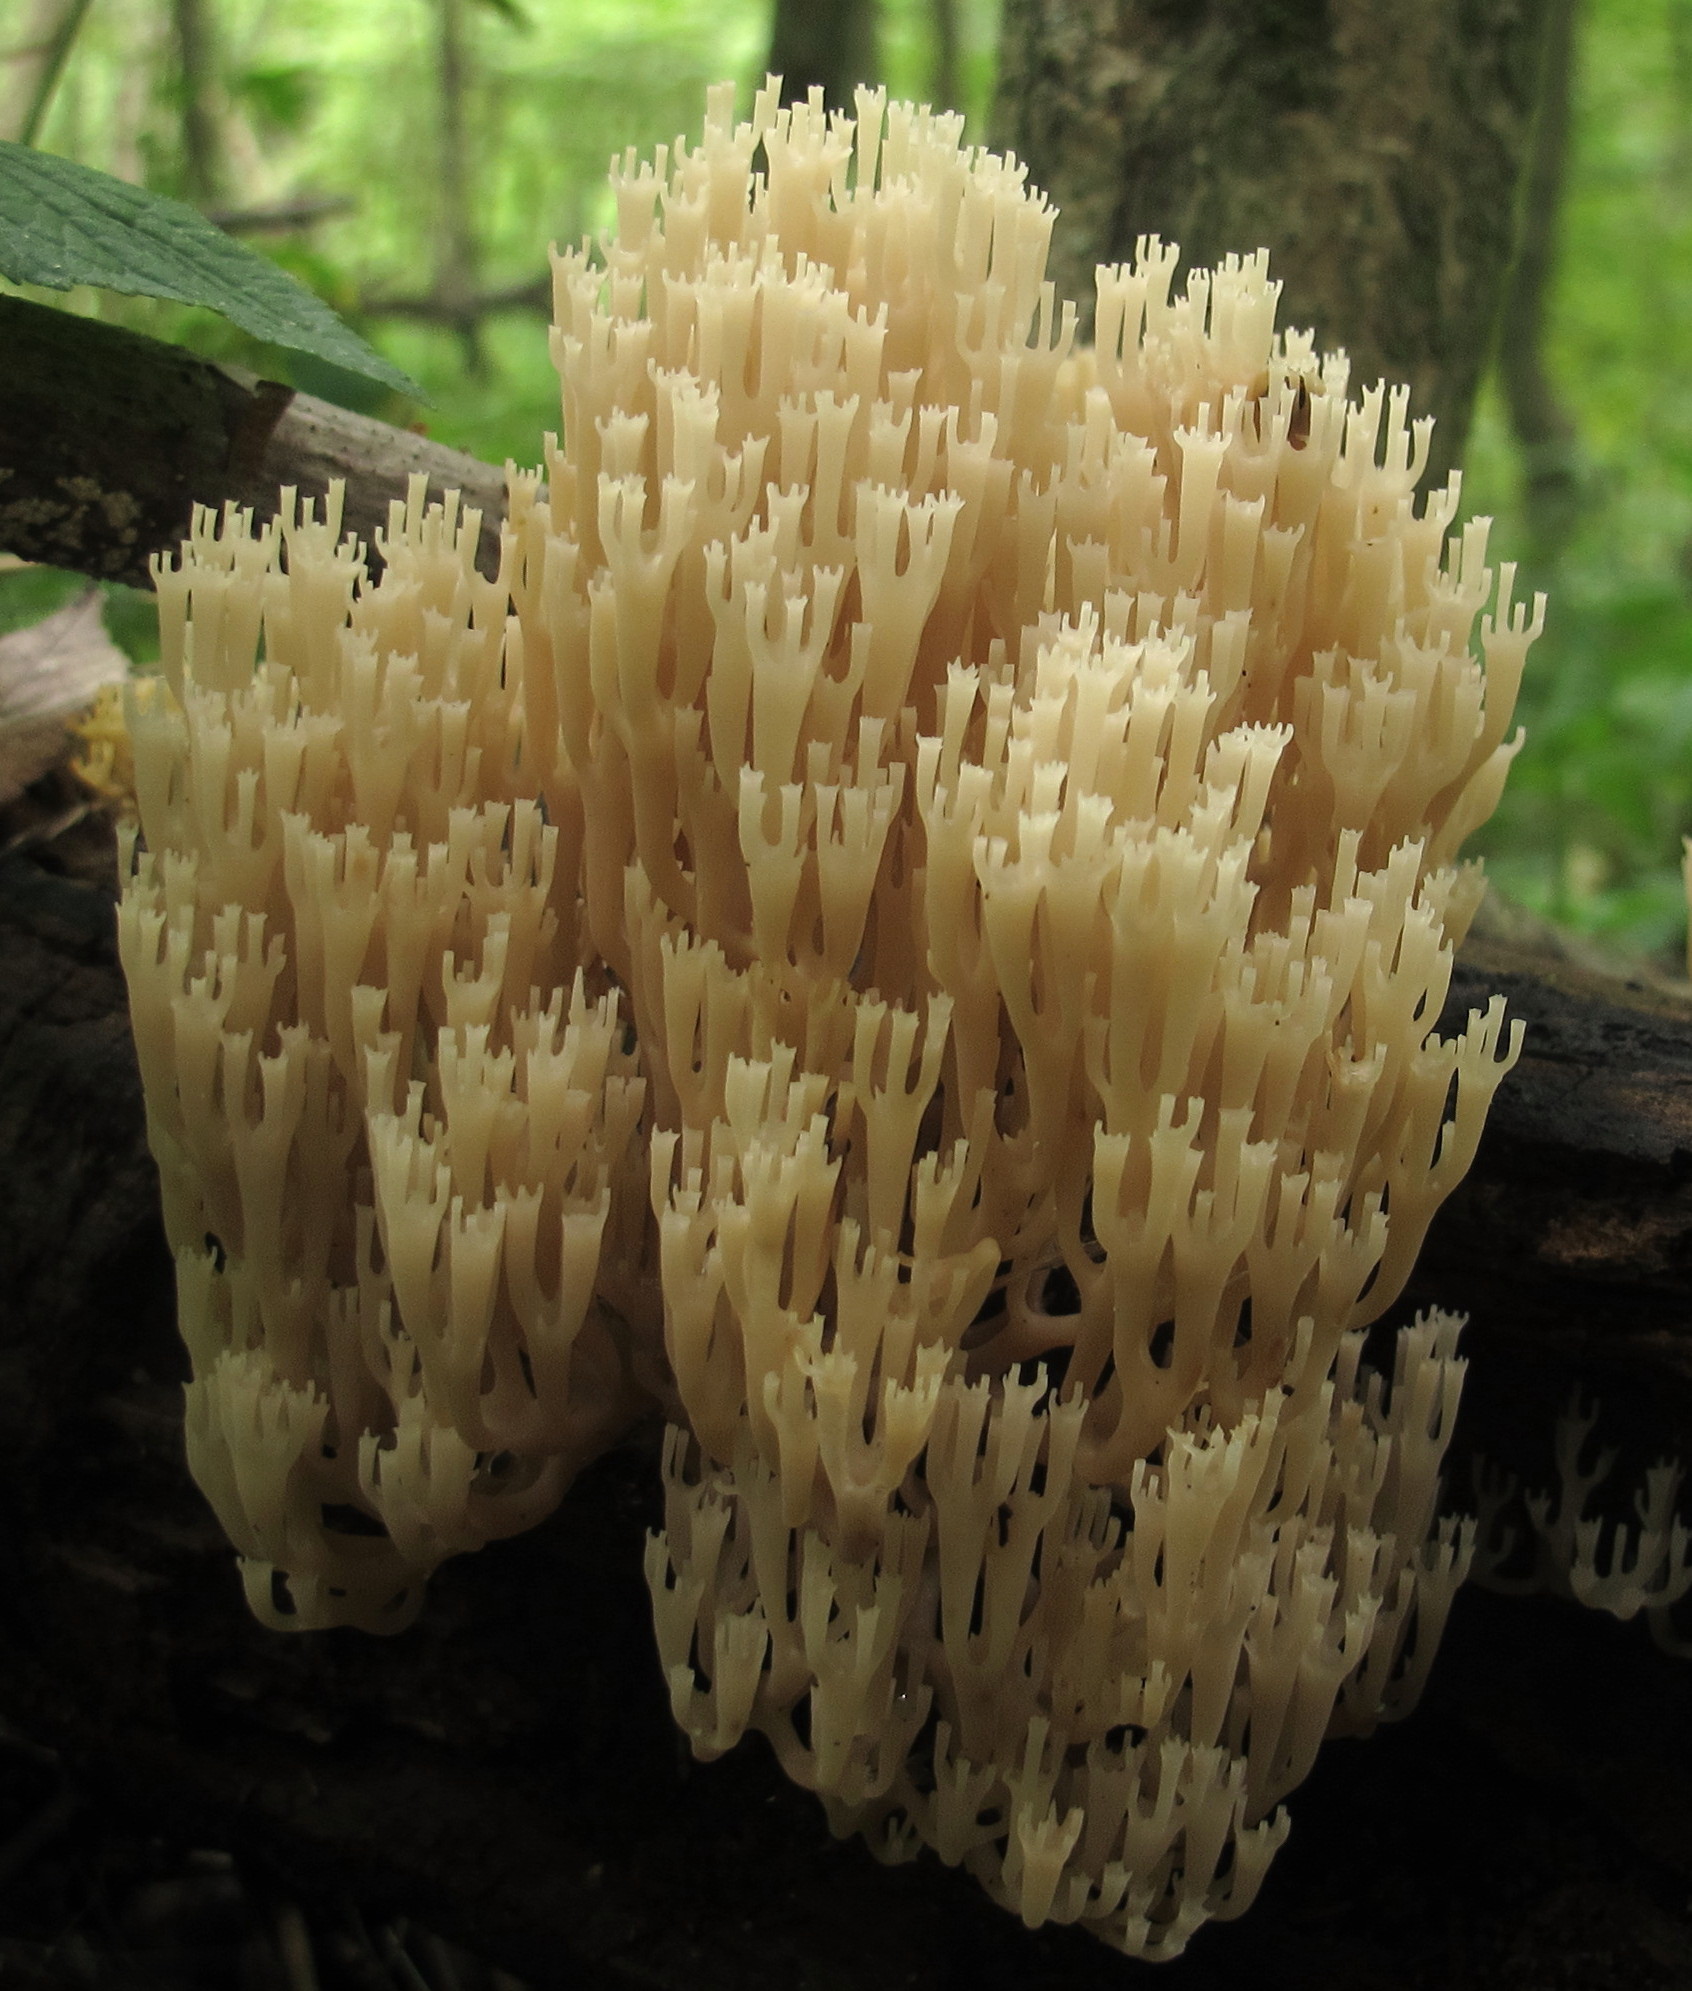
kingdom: Fungi
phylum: Basidiomycota
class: Agaricomycetes
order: Russulales
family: Auriscalpiaceae
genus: Artomyces
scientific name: Artomyces pyxidatus
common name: Crown-tipped coral fungus
